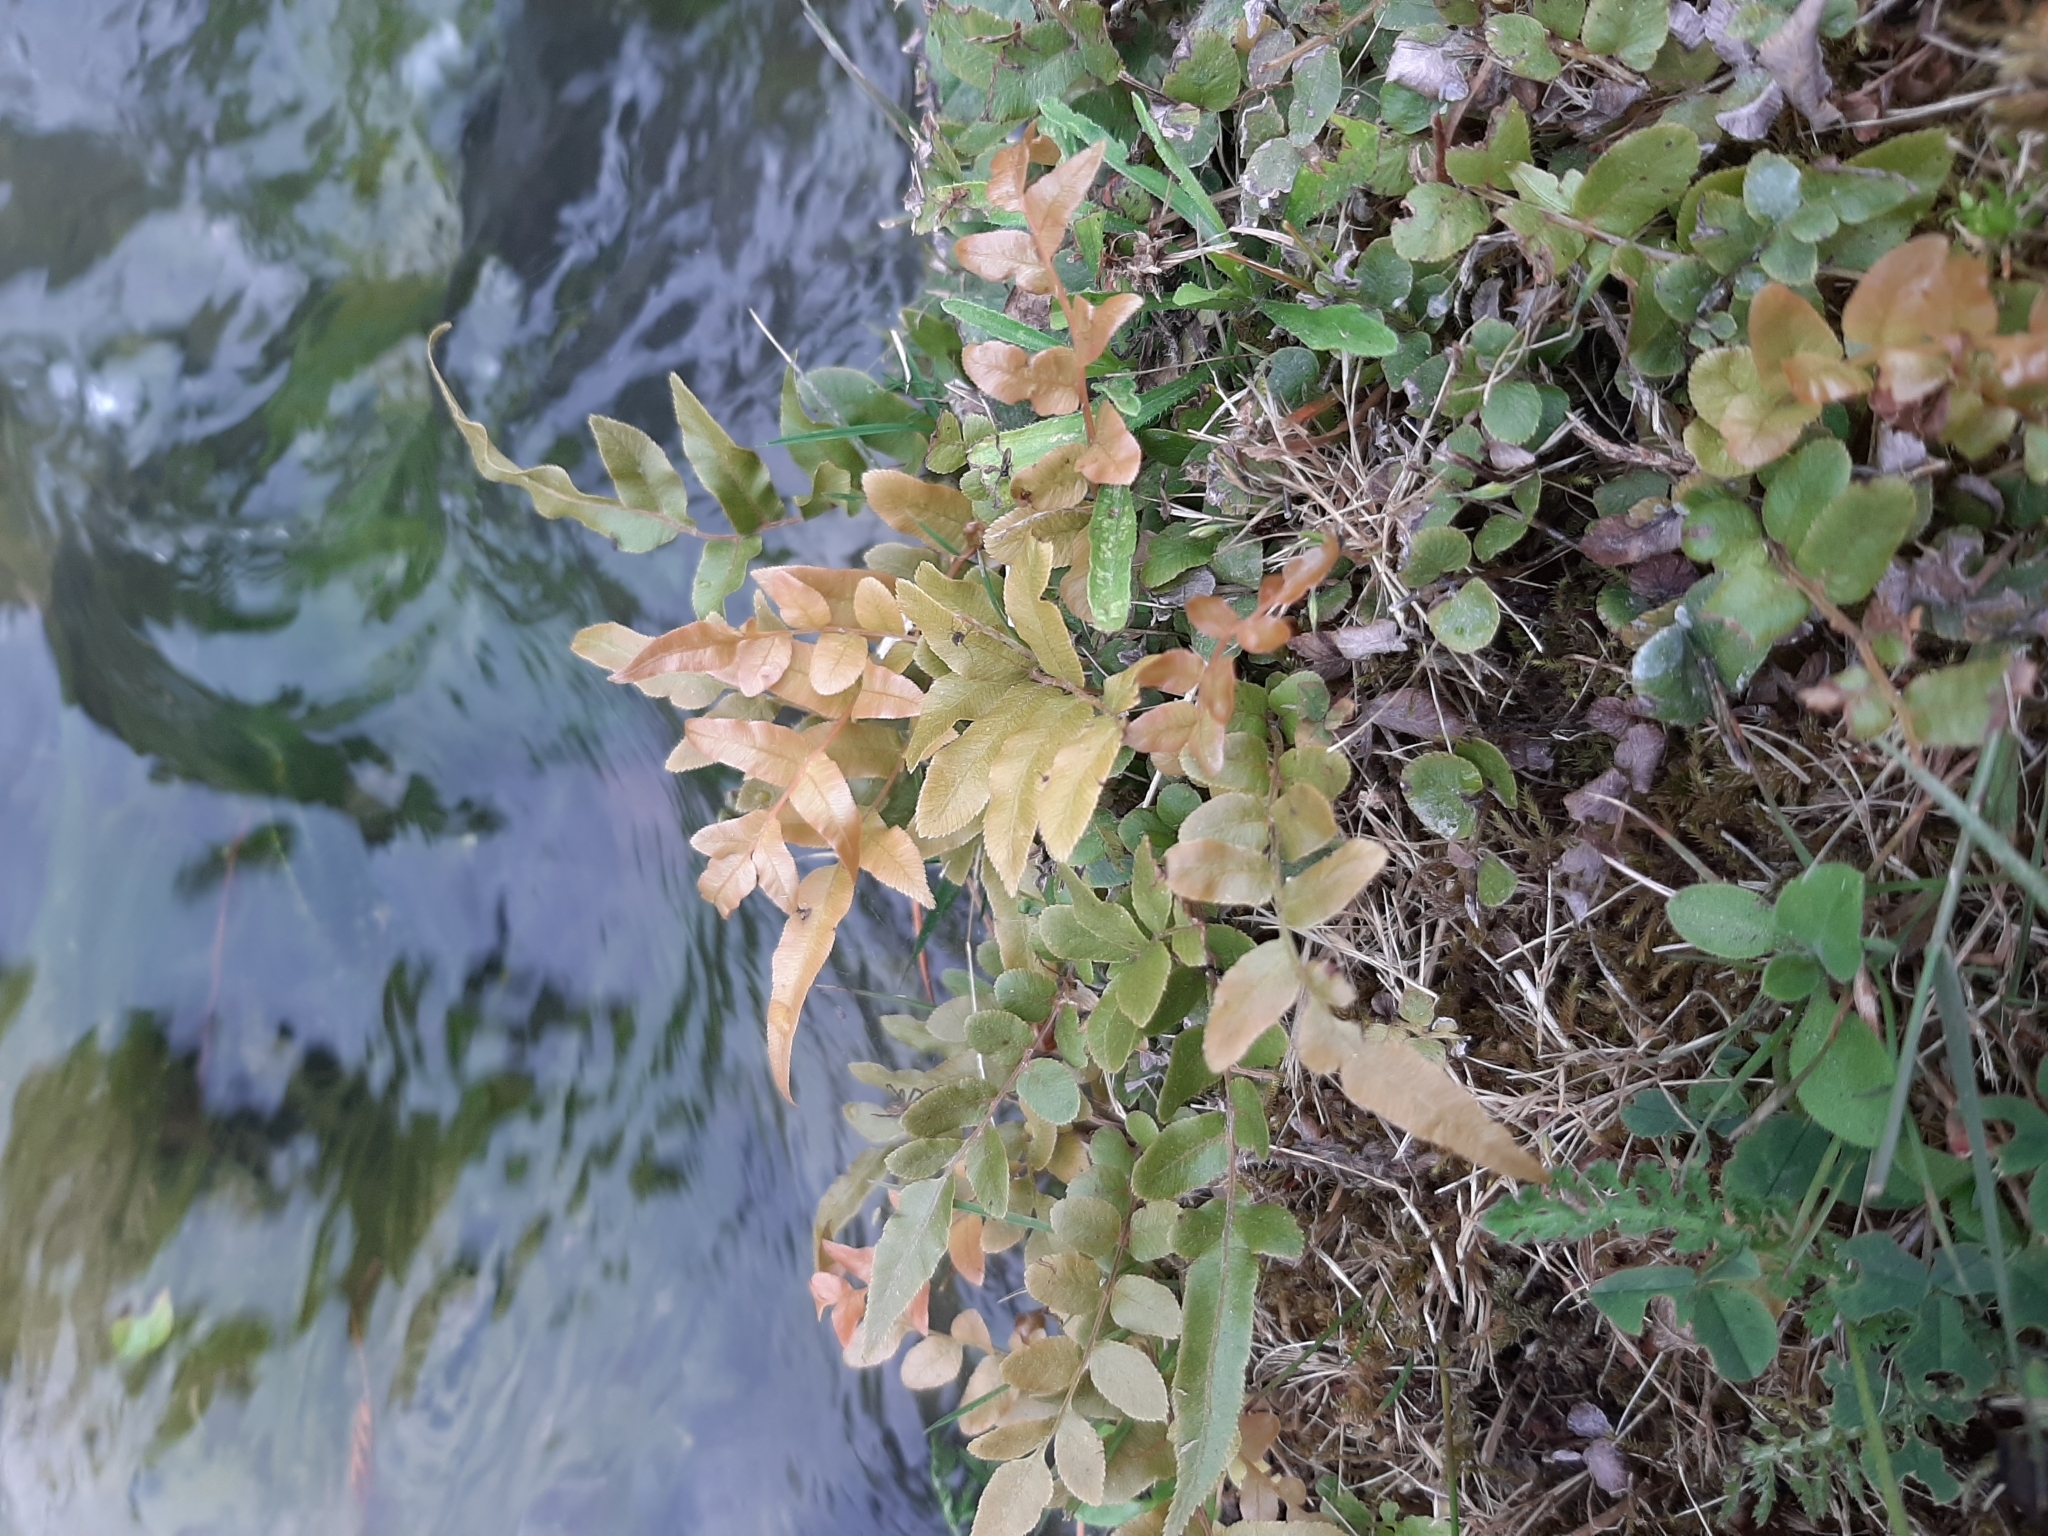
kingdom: Plantae
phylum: Tracheophyta
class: Polypodiopsida
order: Polypodiales
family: Blechnaceae
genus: Parablechnum
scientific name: Parablechnum minus
